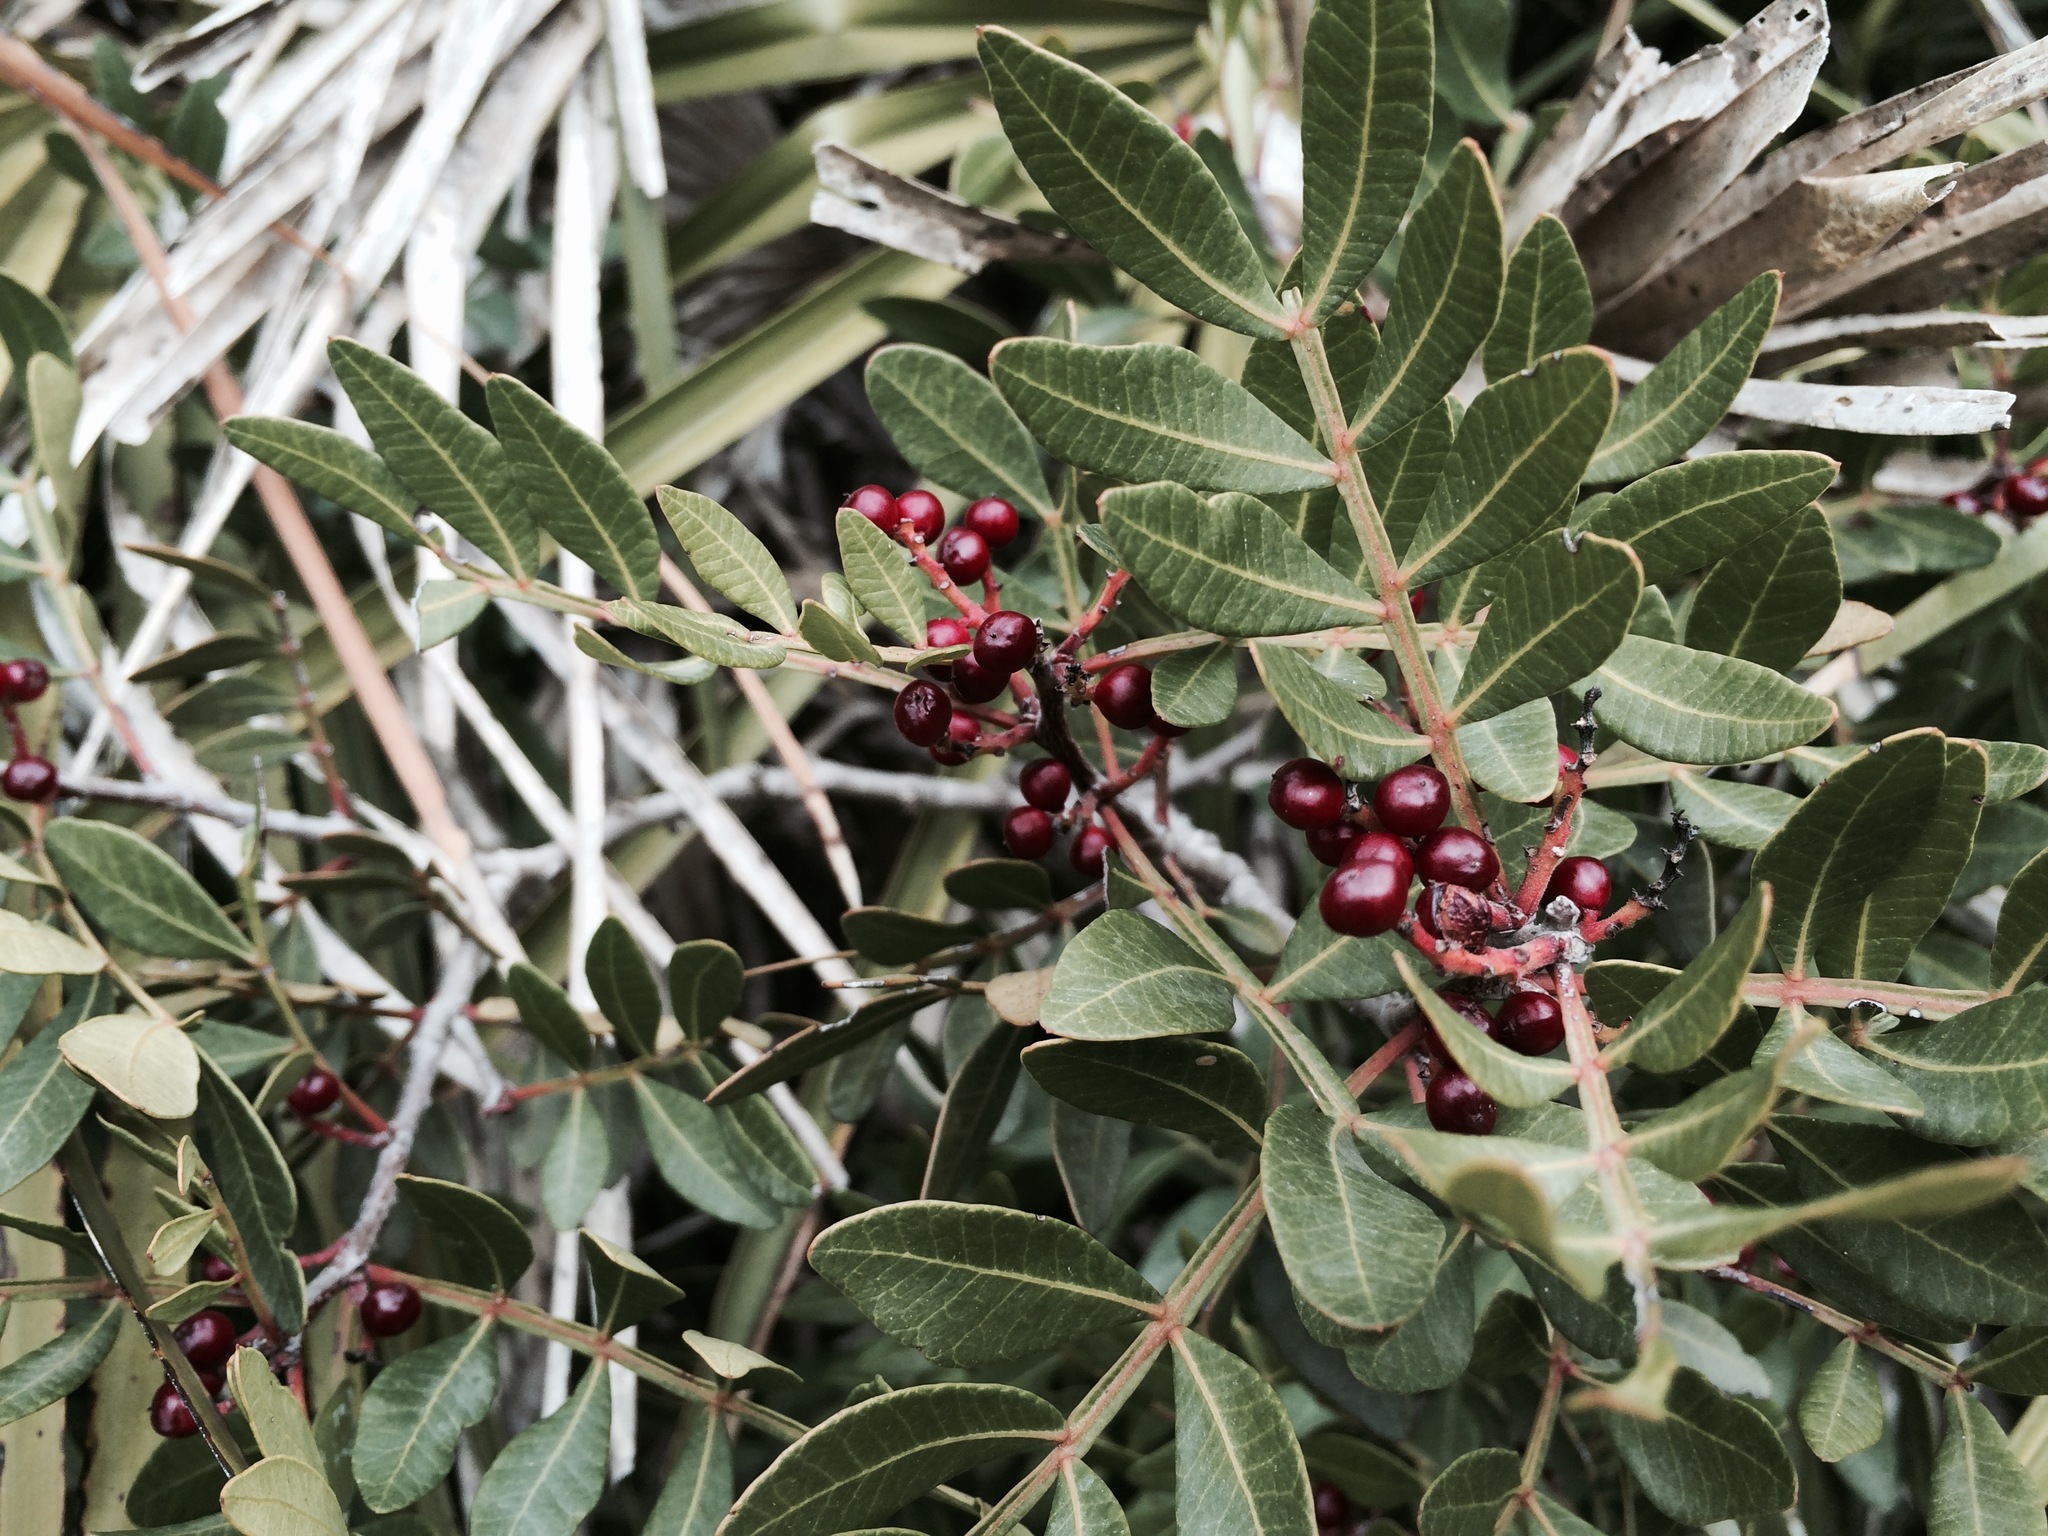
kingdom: Plantae
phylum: Tracheophyta
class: Magnoliopsida
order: Sapindales
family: Anacardiaceae
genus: Pistacia
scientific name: Pistacia lentiscus
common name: Lentisk
